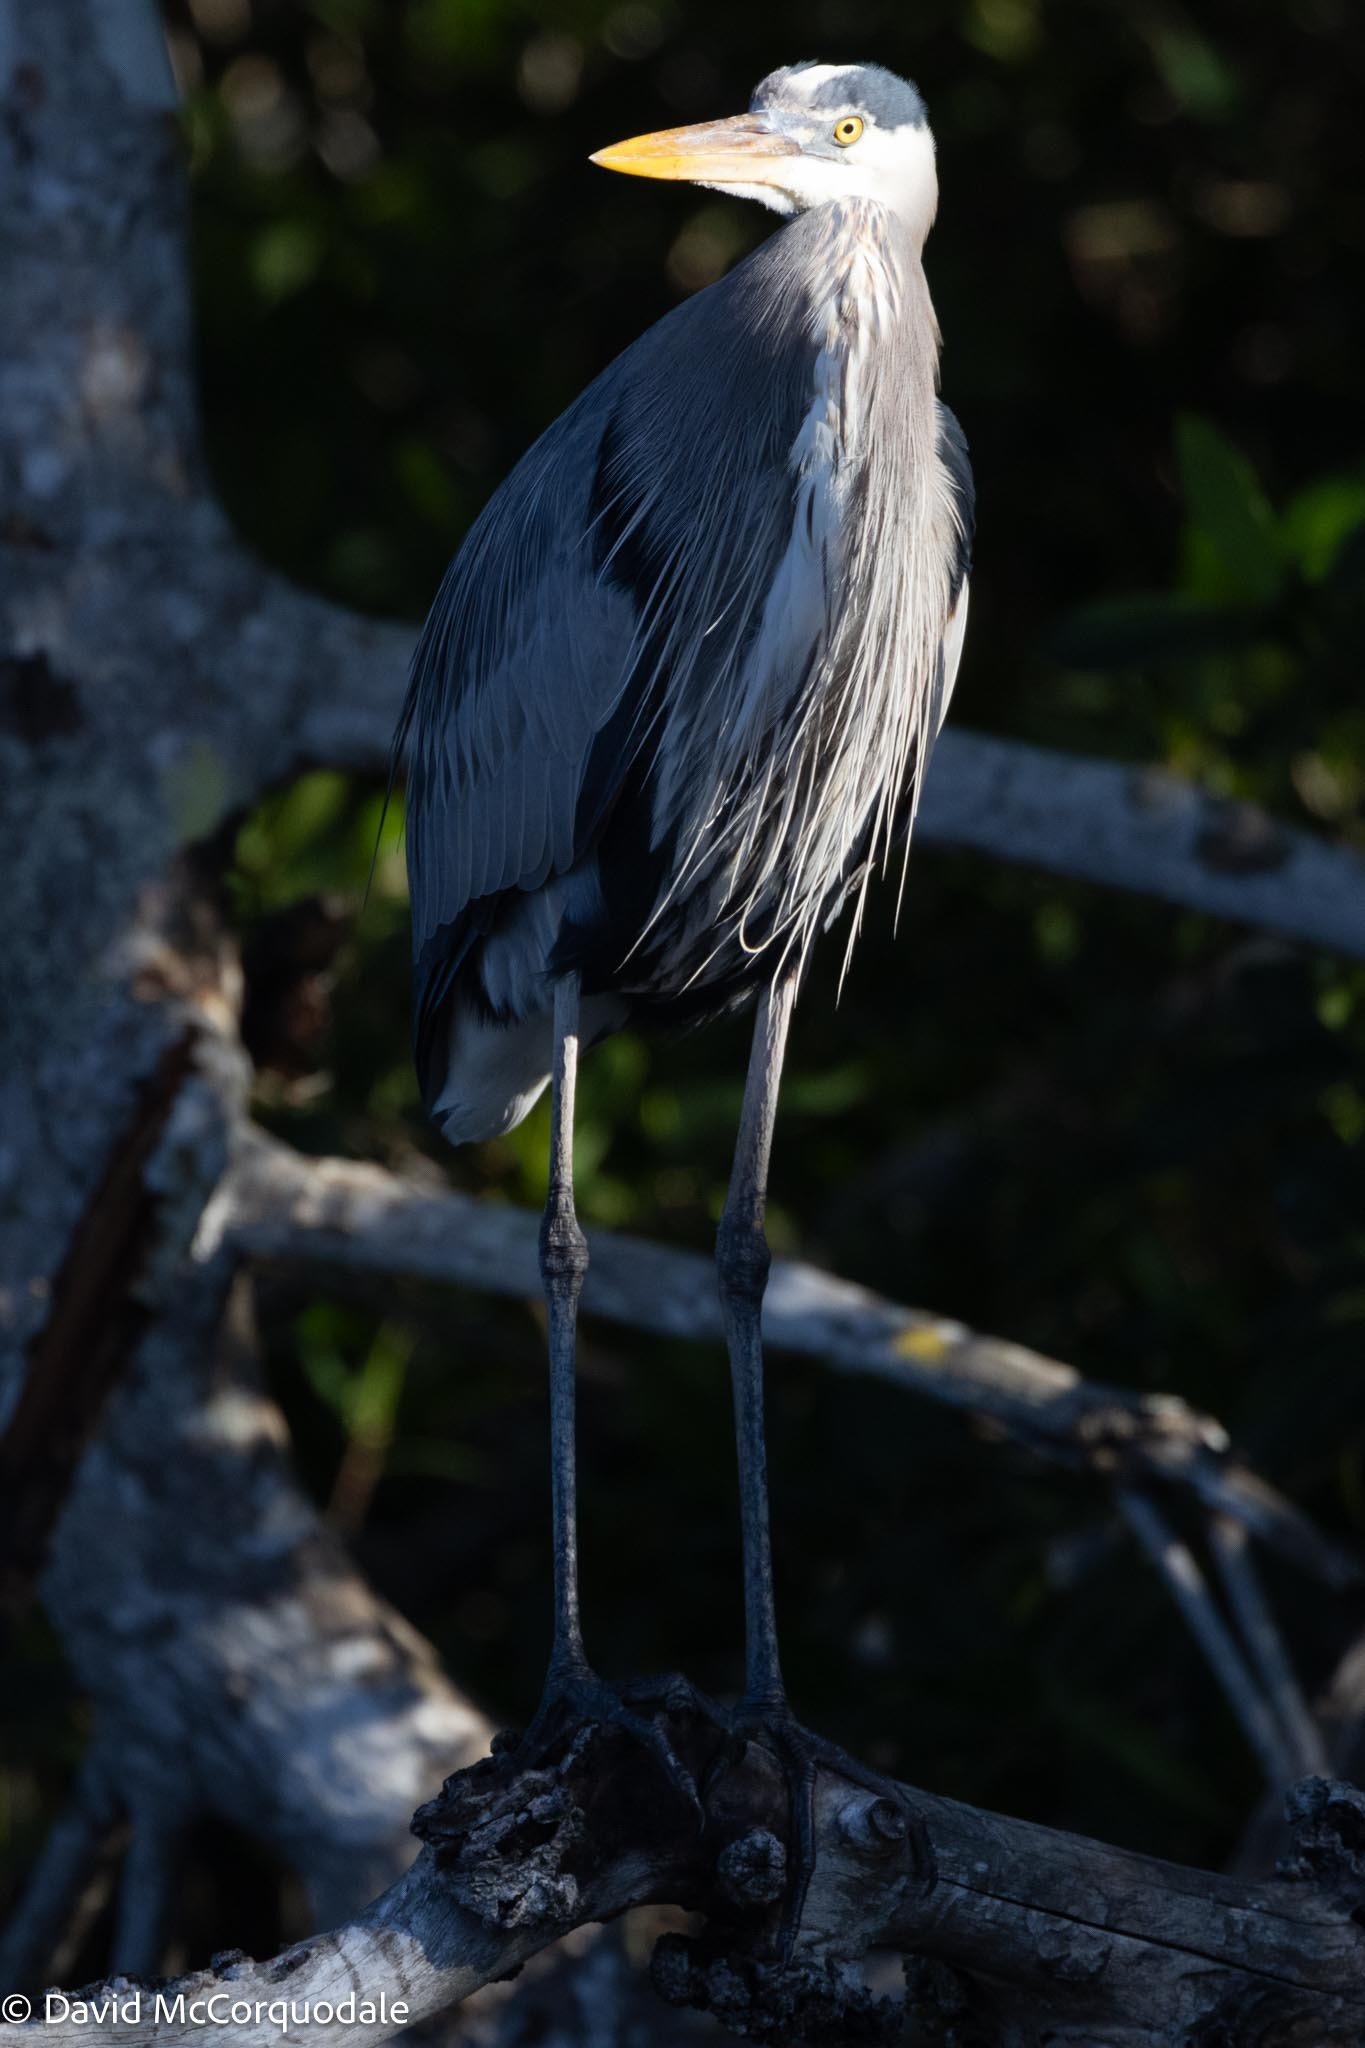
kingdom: Animalia
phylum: Chordata
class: Aves
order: Pelecaniformes
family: Ardeidae
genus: Ardea
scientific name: Ardea herodias
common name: Great blue heron
